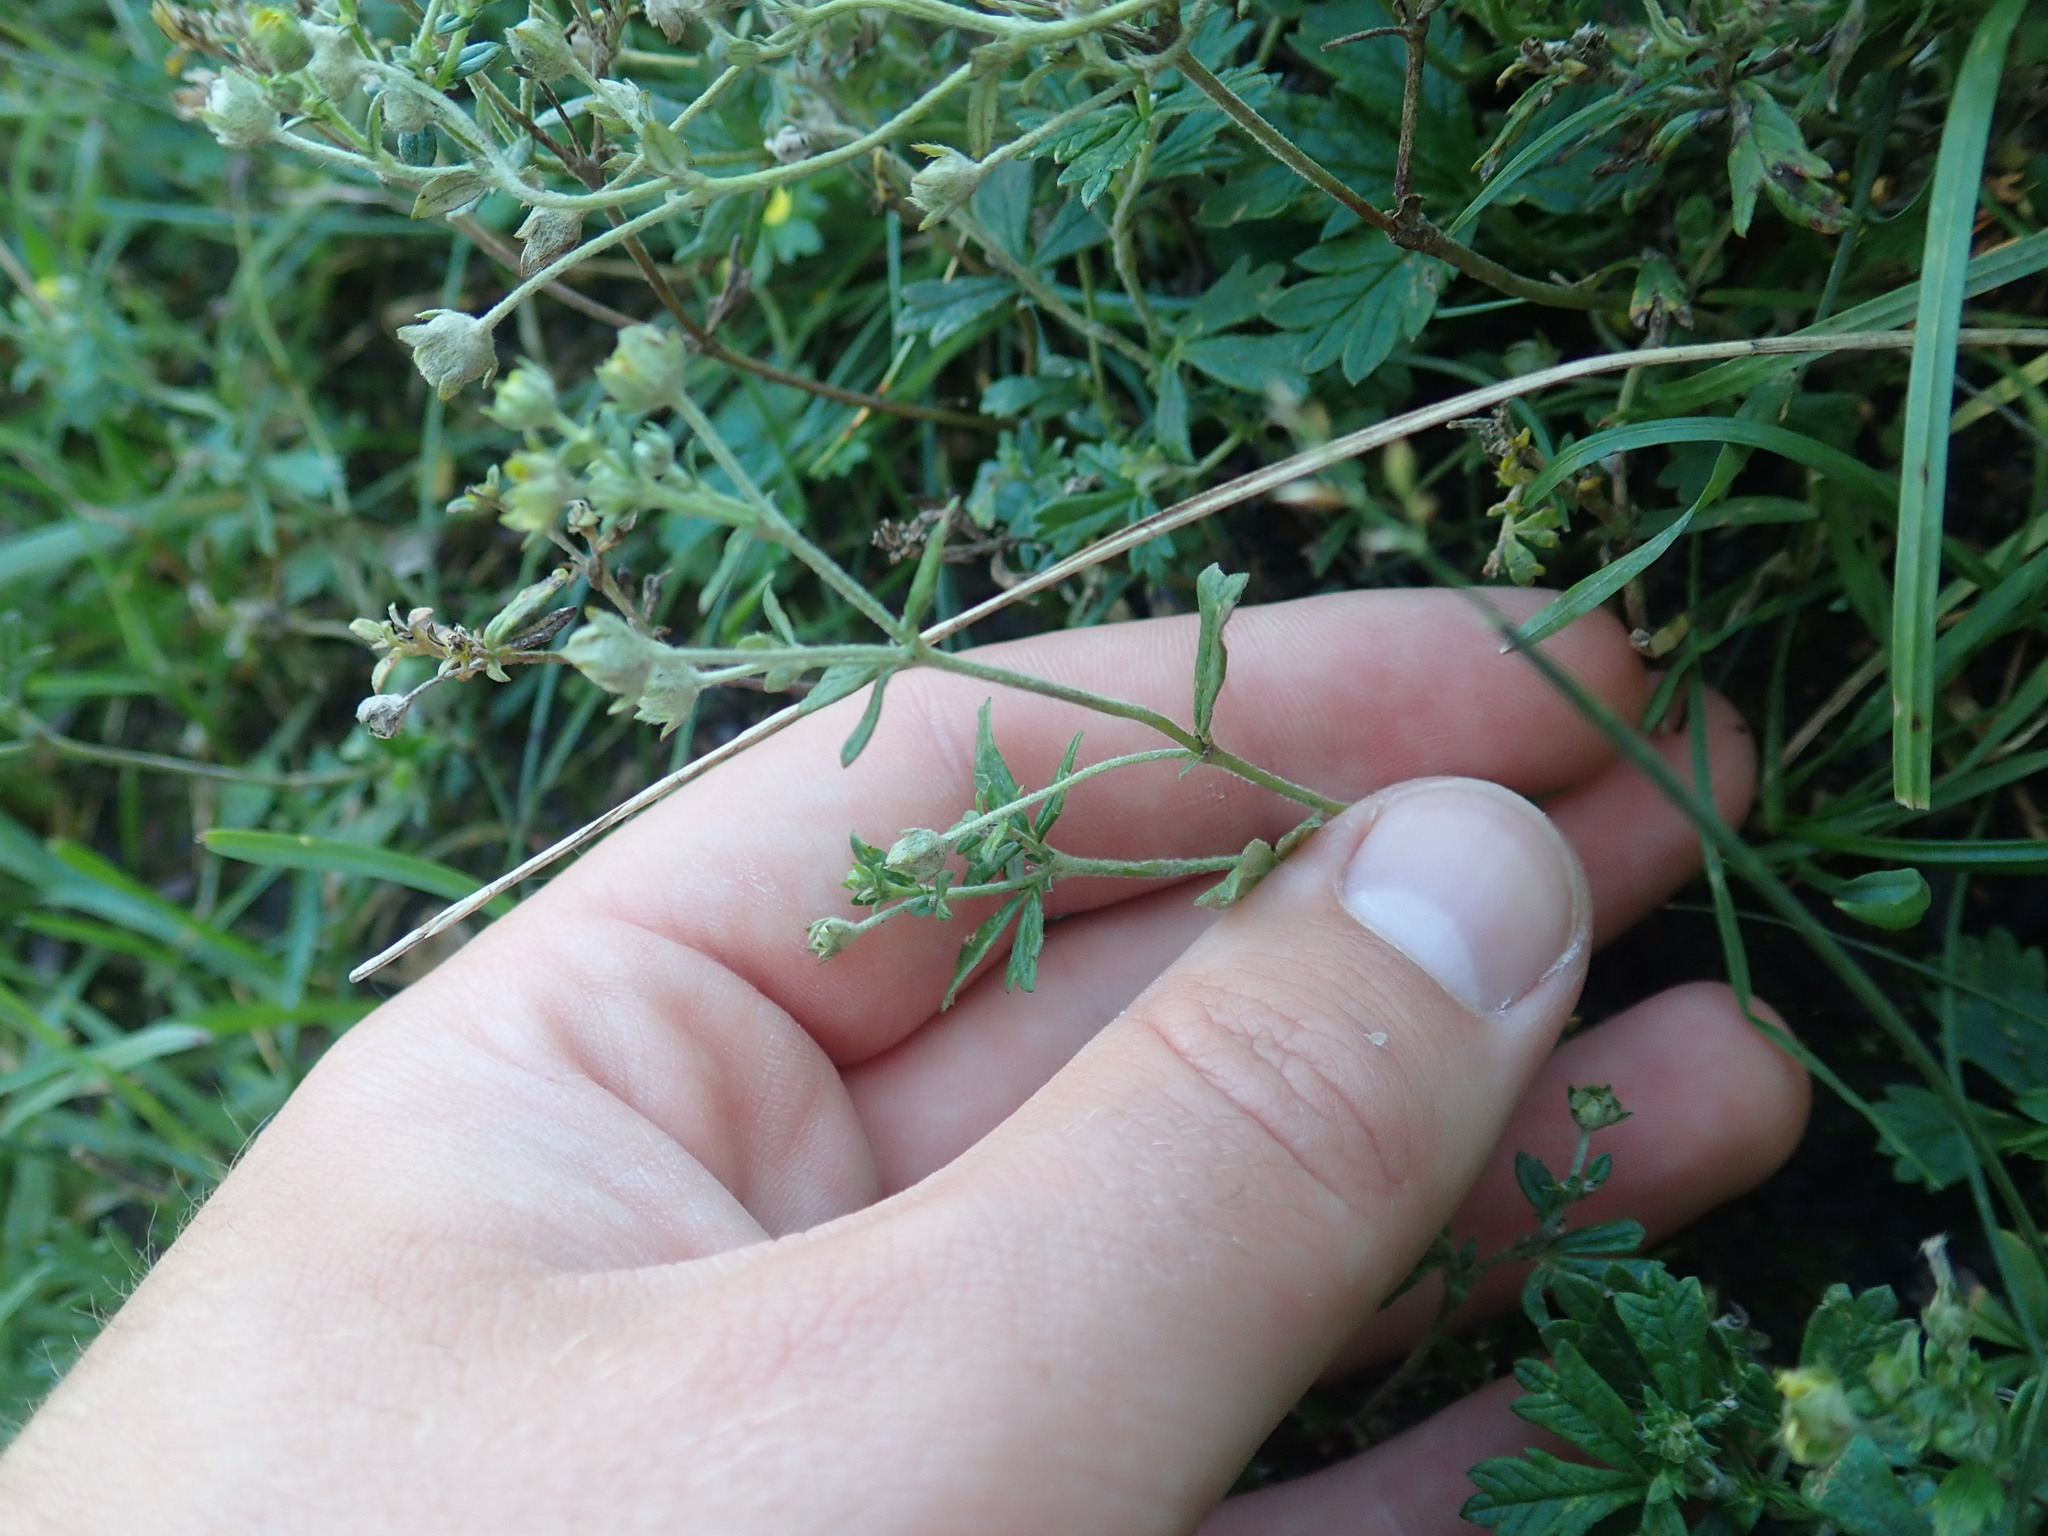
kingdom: Plantae
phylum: Tracheophyta
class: Magnoliopsida
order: Rosales
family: Rosaceae
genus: Potentilla
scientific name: Potentilla argentea
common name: Hoary cinquefoil
